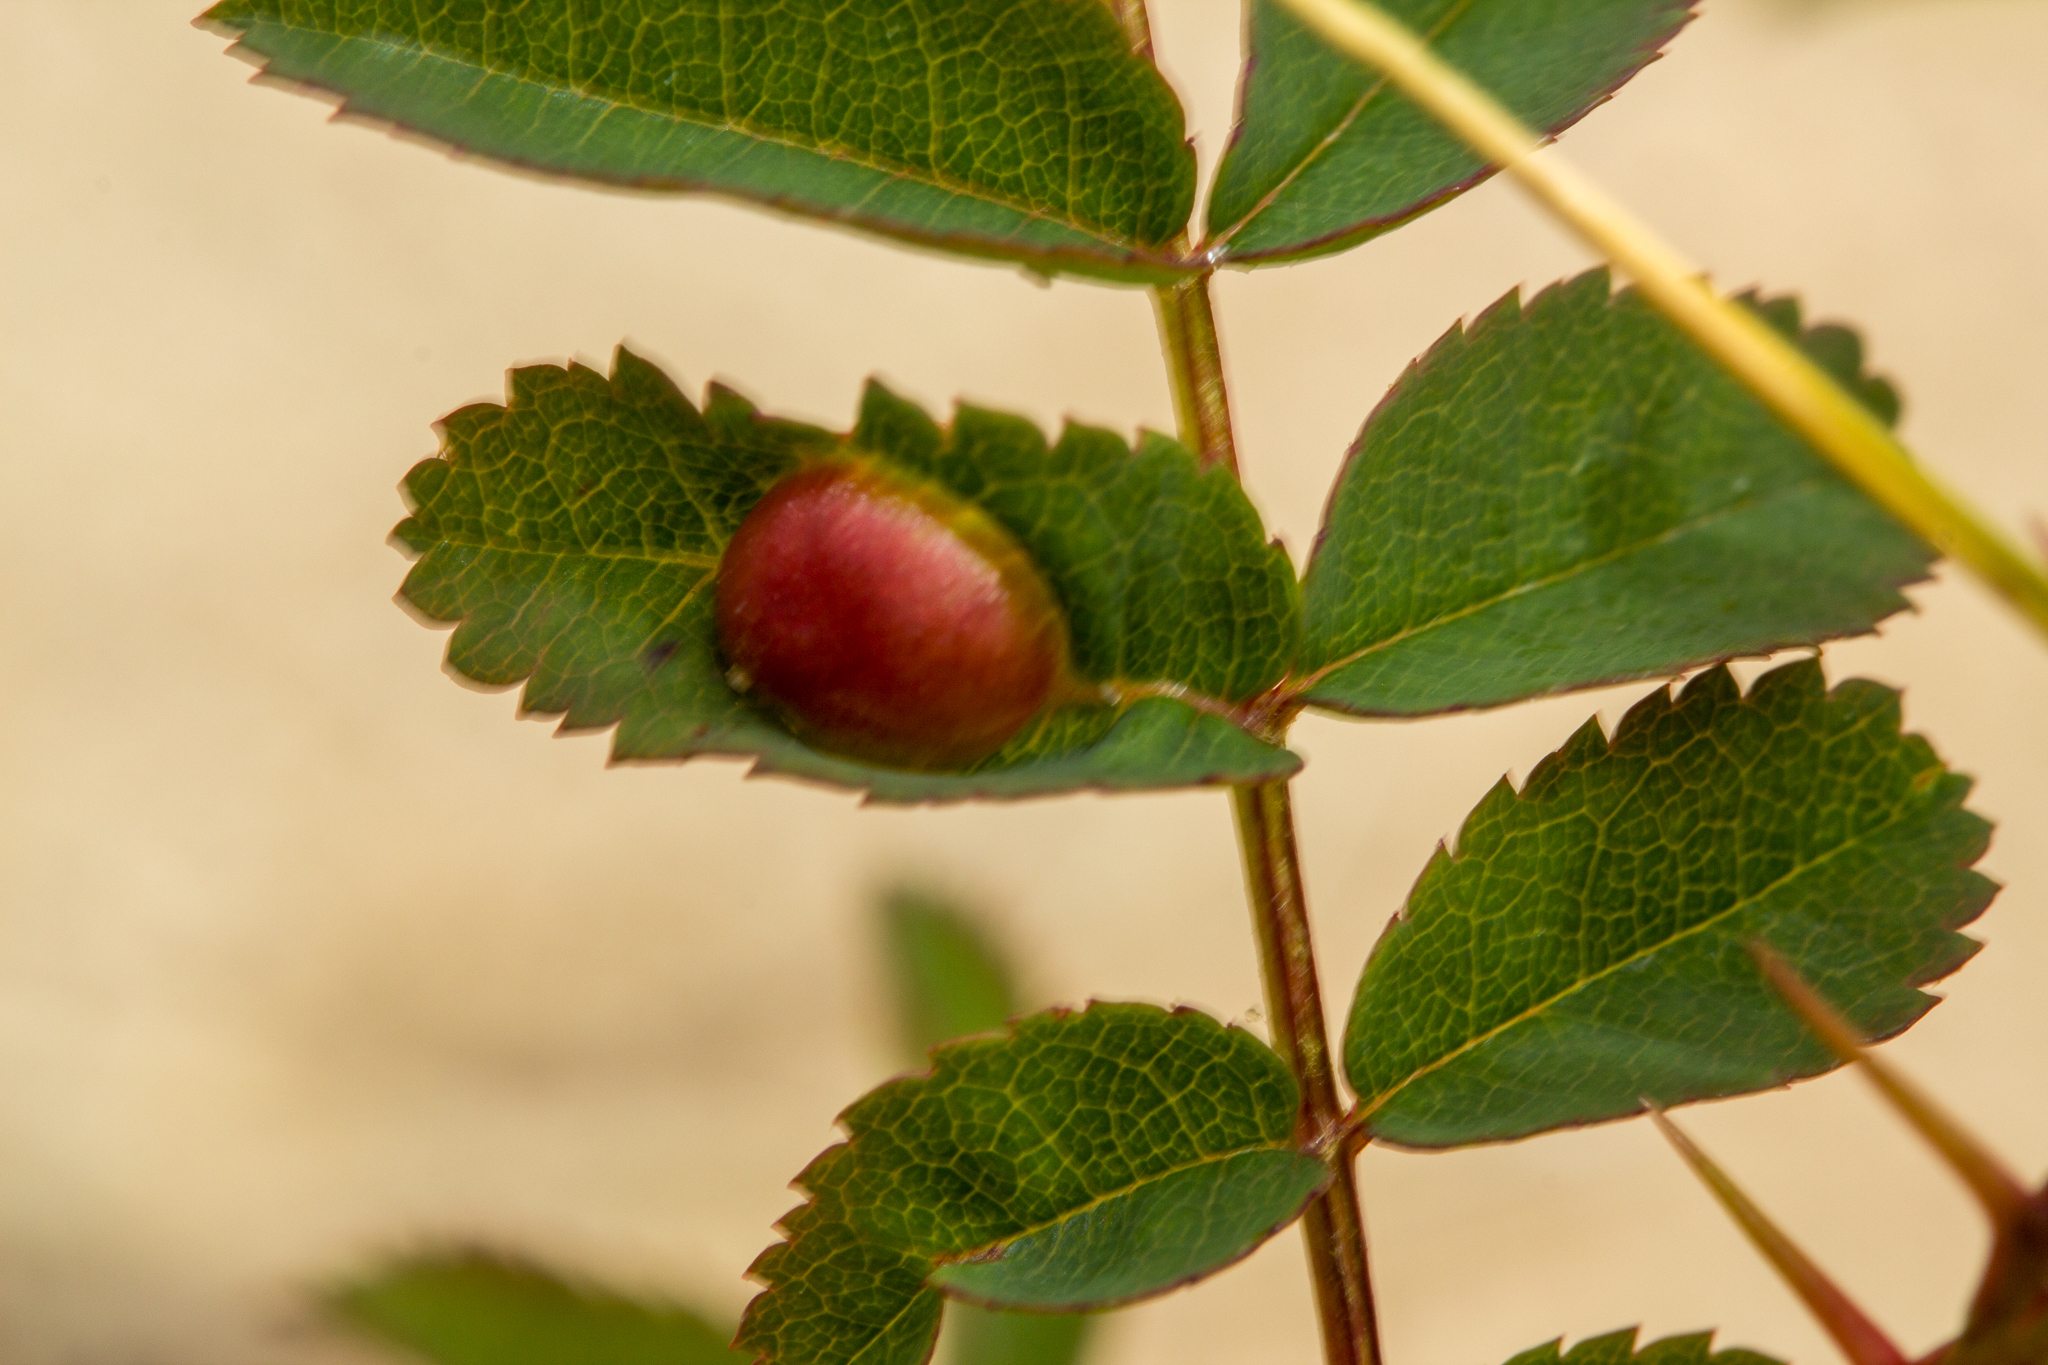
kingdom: Animalia
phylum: Arthropoda
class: Insecta
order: Hymenoptera
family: Cynipidae
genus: Diplolepis
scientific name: Diplolepis spinosissimae
